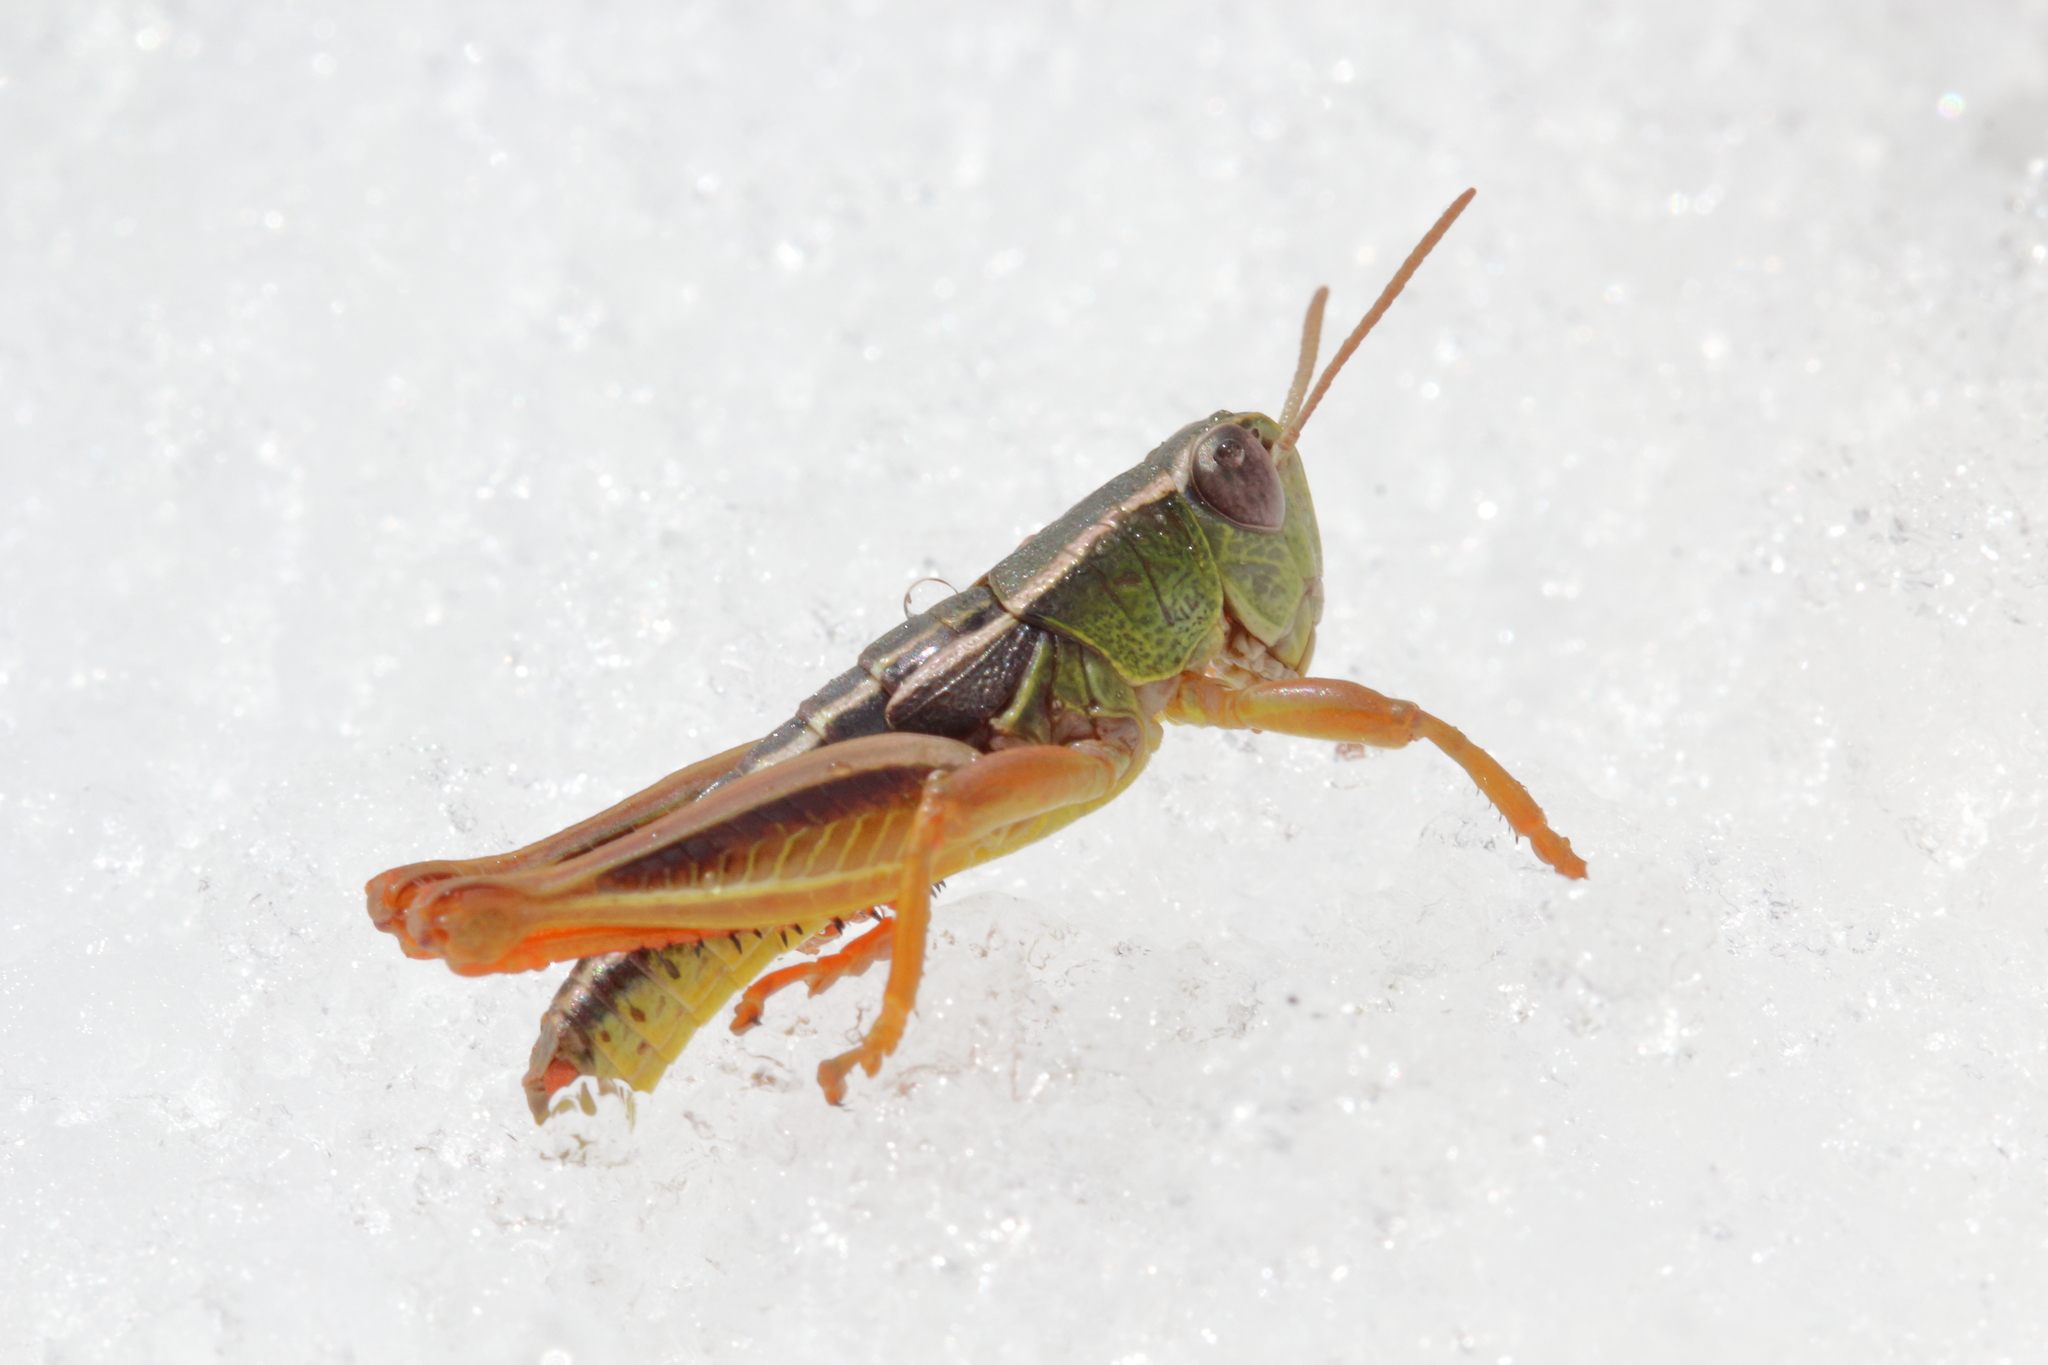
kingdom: Animalia
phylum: Arthropoda
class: Insecta
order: Orthoptera
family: Acrididae
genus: Sigaus
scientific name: Sigaus
